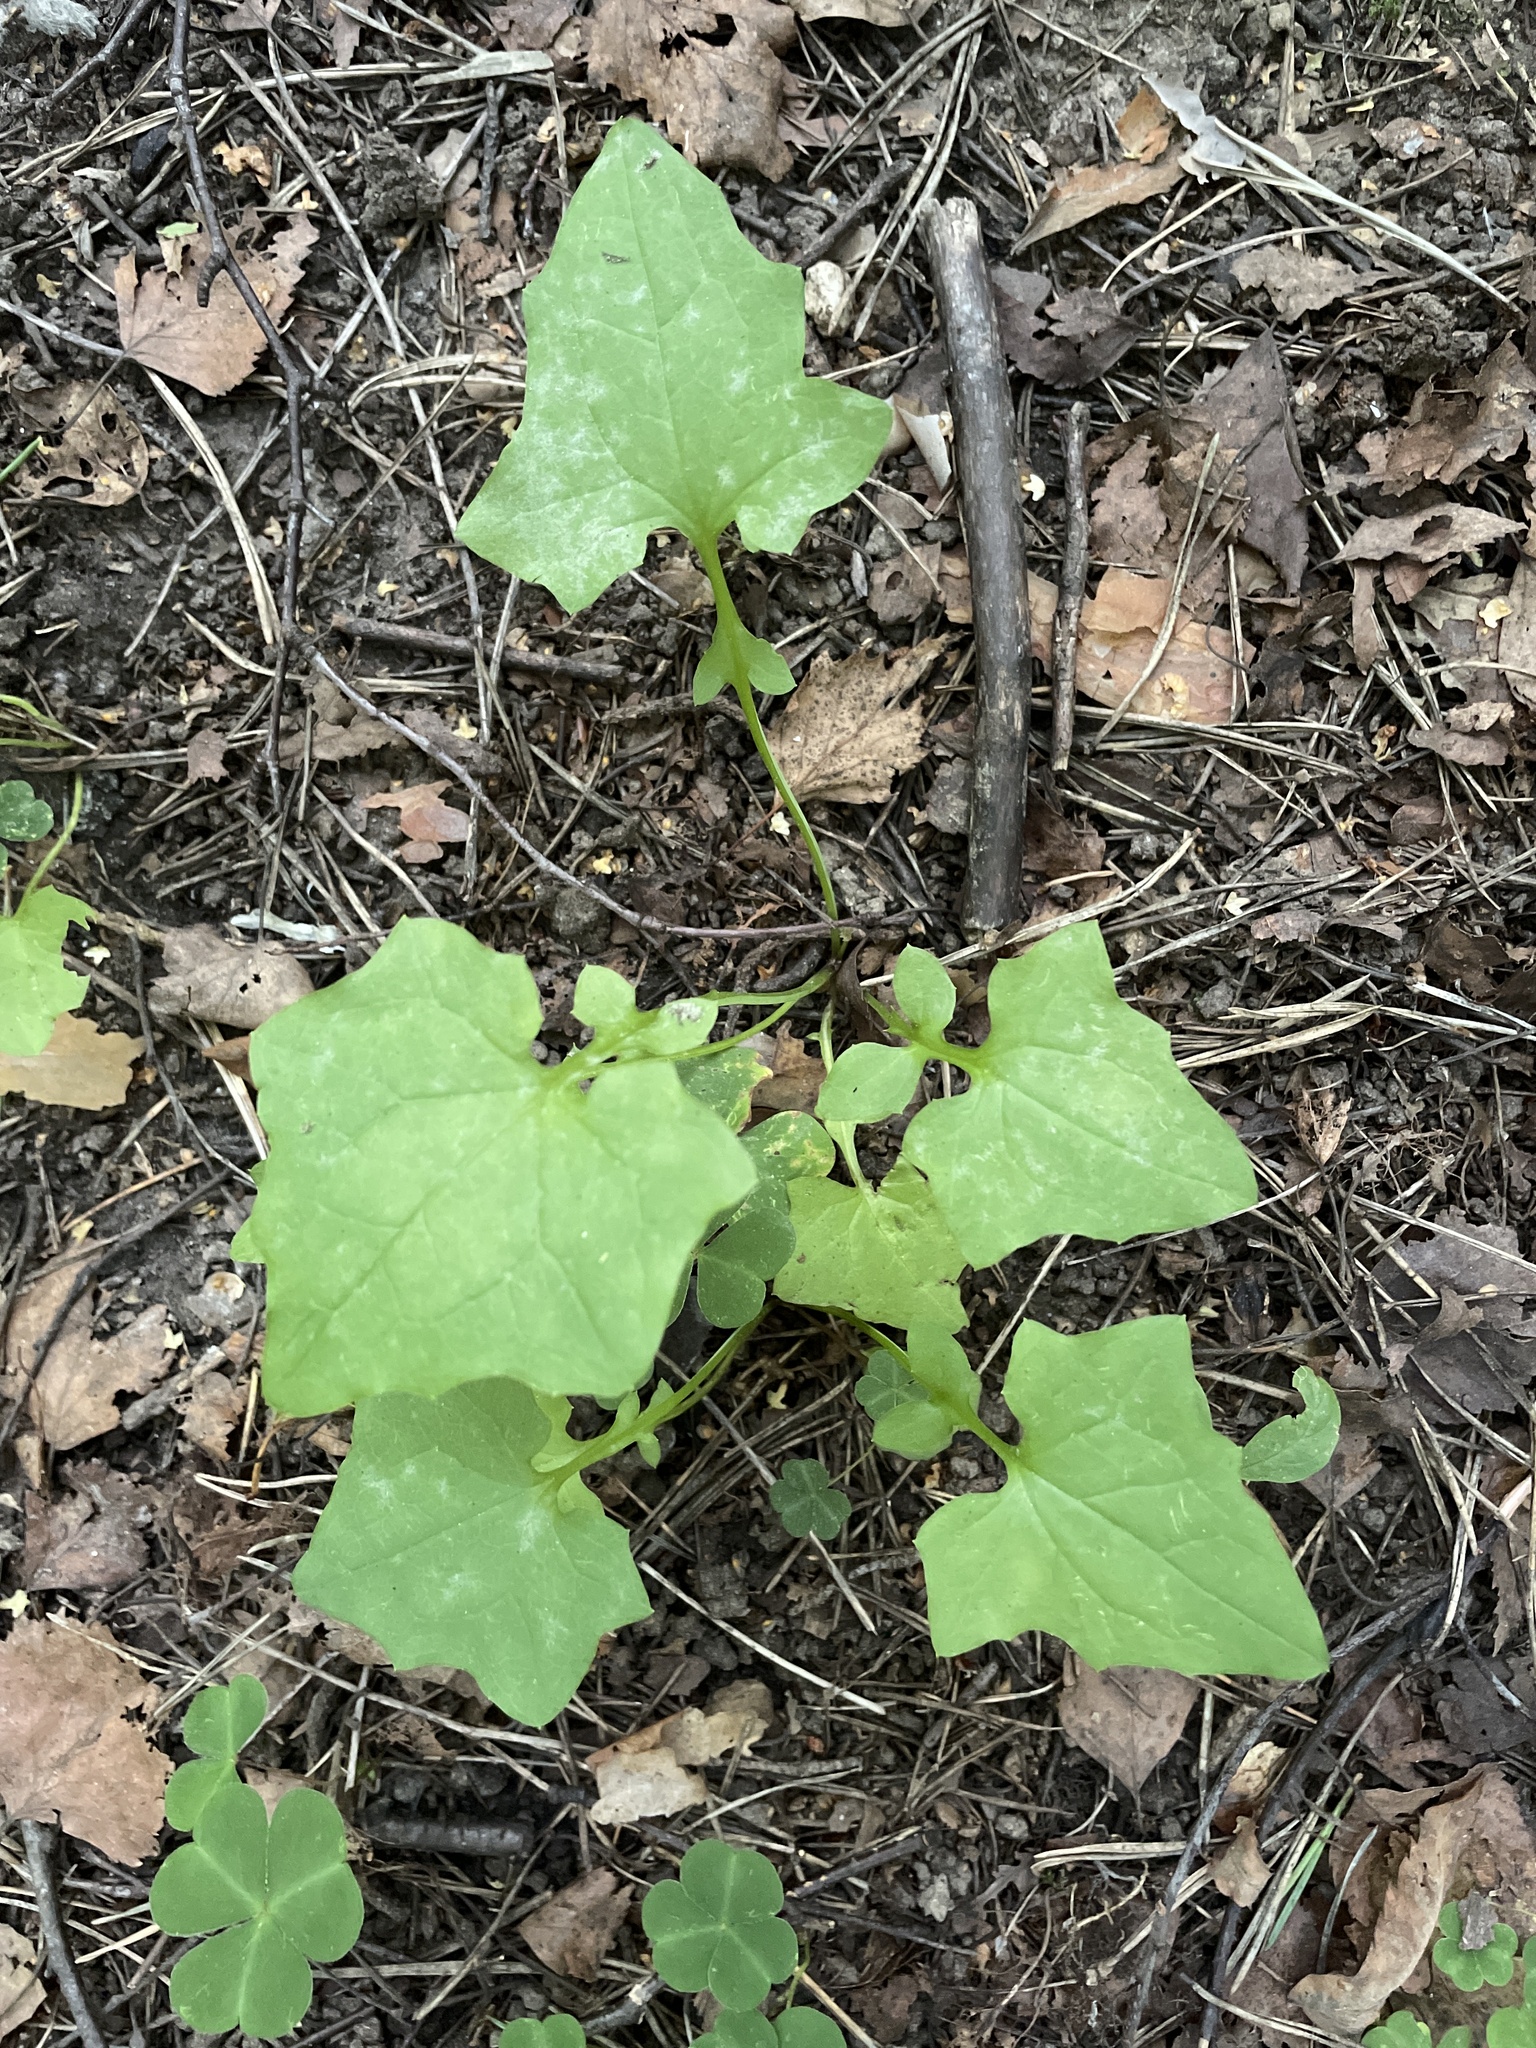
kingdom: Plantae
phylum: Tracheophyta
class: Magnoliopsida
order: Asterales
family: Asteraceae
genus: Mycelis
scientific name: Mycelis muralis
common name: Wall lettuce
